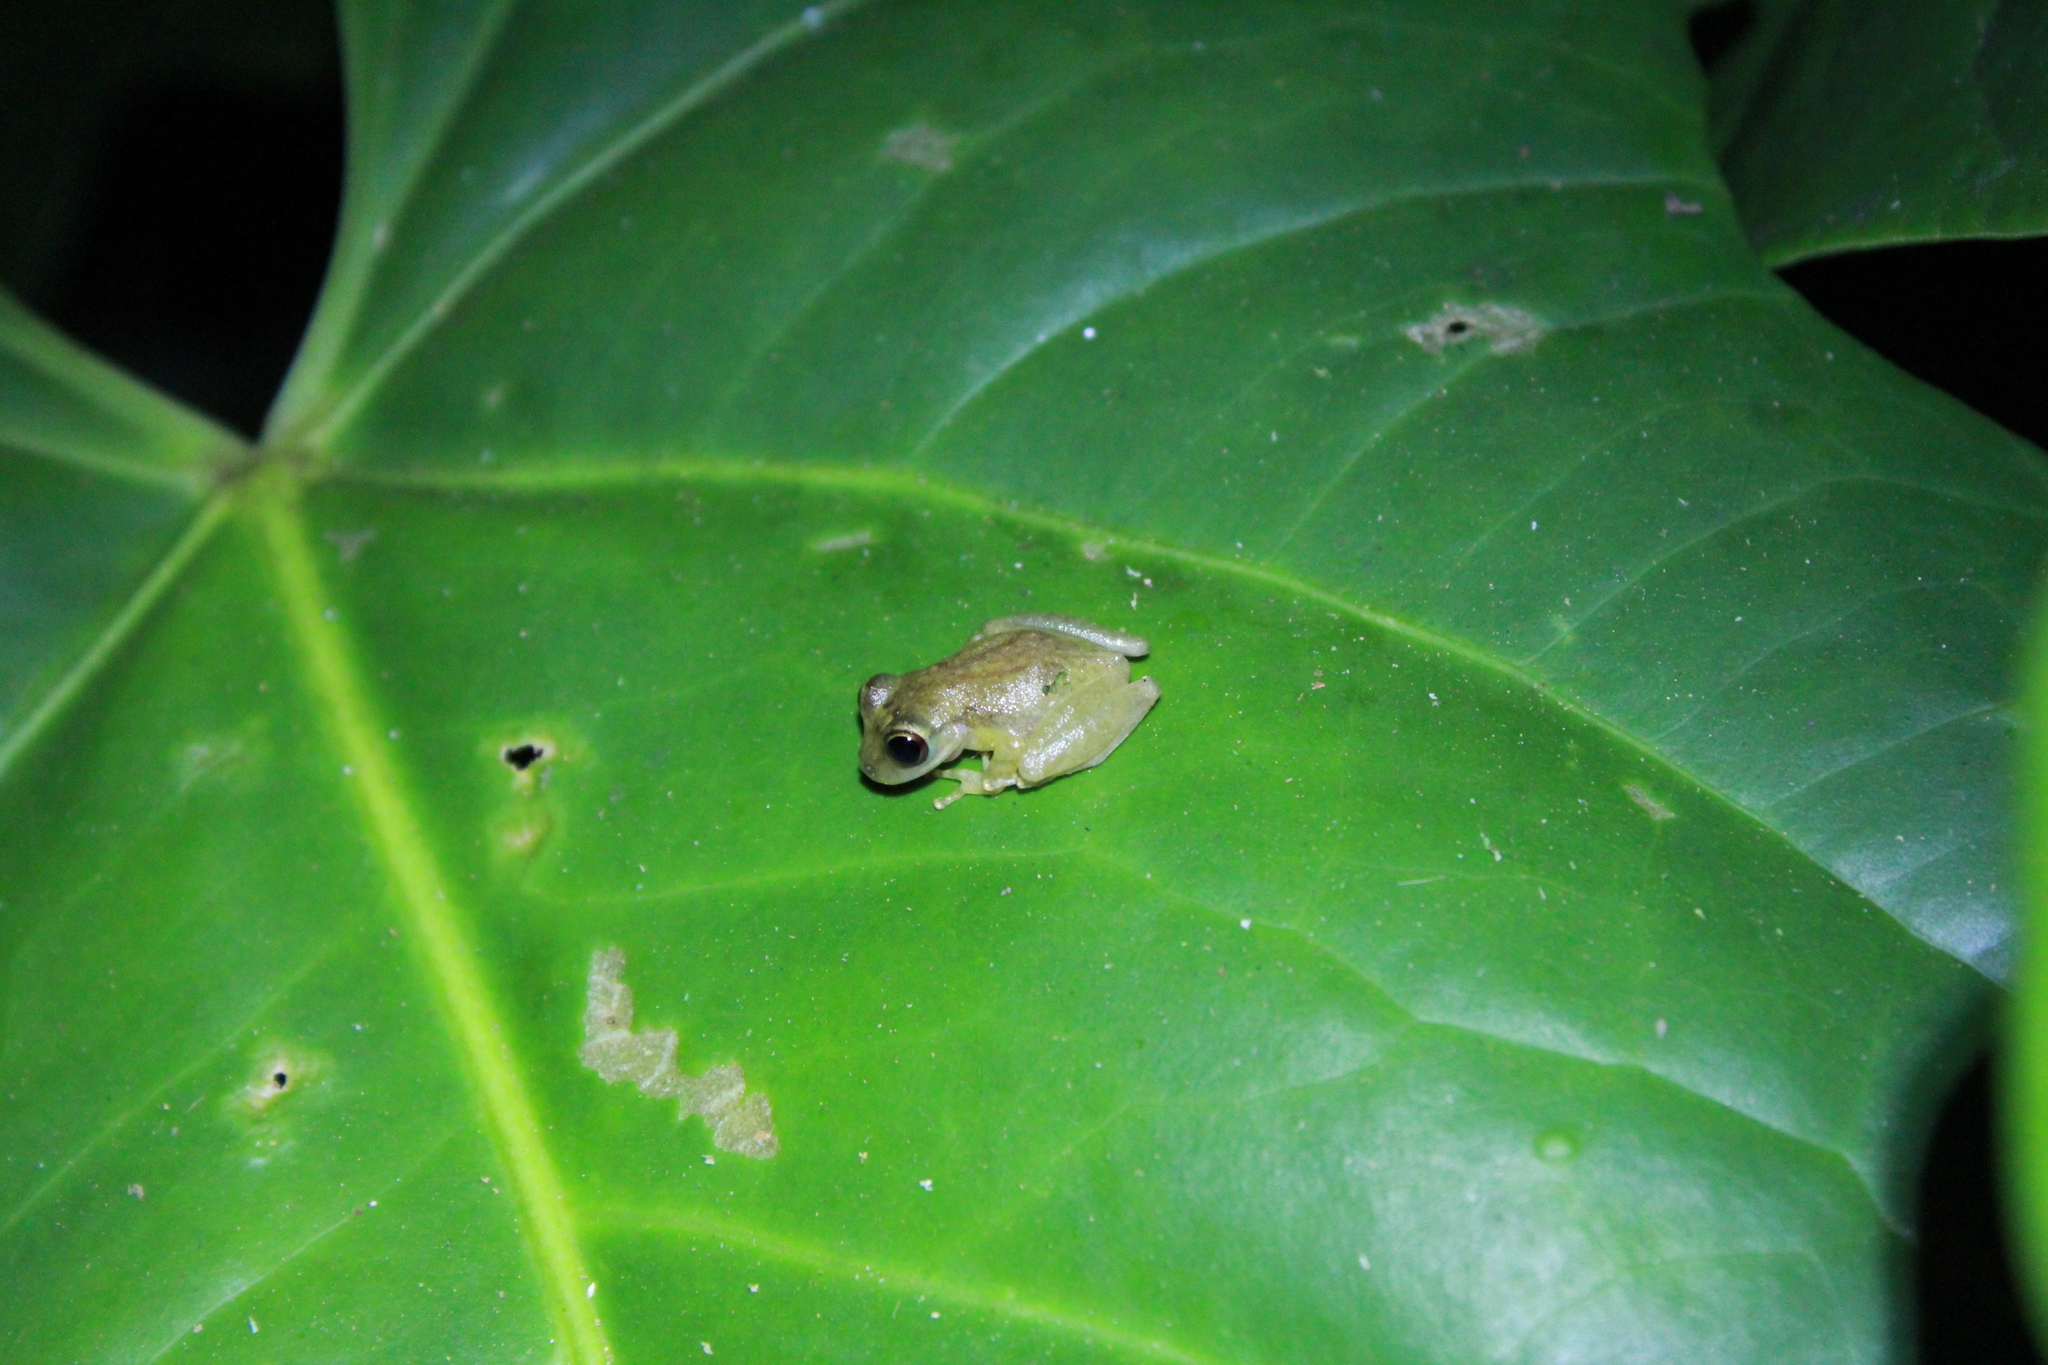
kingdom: Animalia
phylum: Chordata
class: Amphibia
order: Anura
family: Hemiphractidae
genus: Flectonotus
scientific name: Flectonotus fitzgeraldi
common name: Marsupial frog
